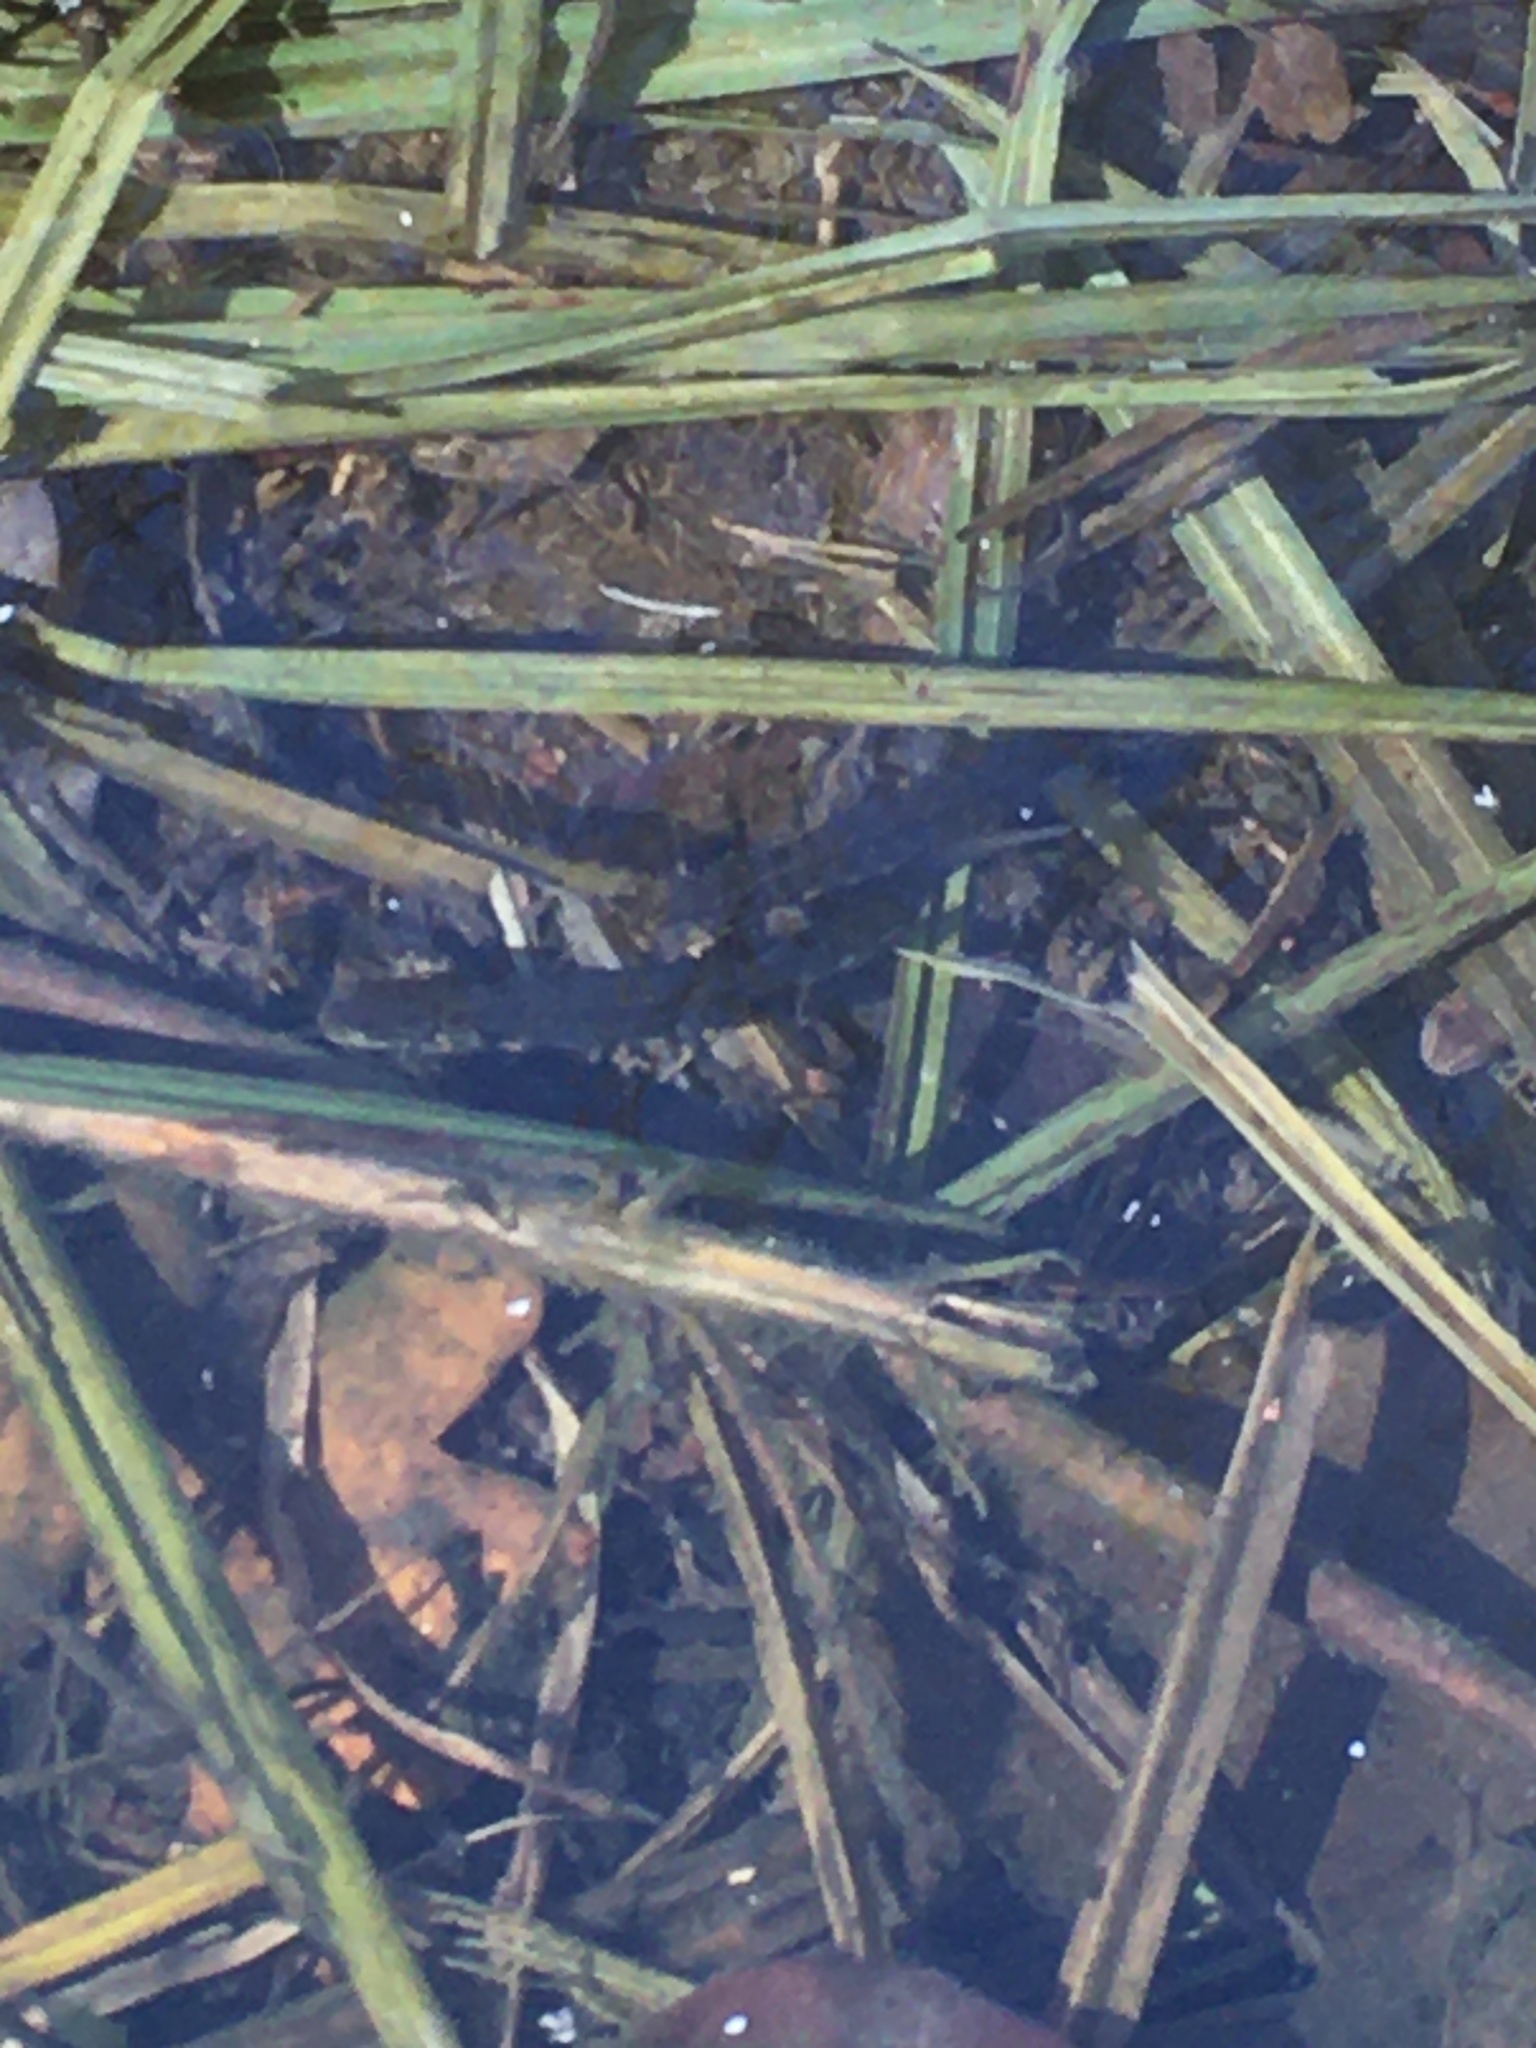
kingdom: Animalia
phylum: Chordata
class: Amphibia
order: Caudata
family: Salamandridae
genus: Lissotriton
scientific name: Lissotriton vulgaris
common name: Smooth newt
